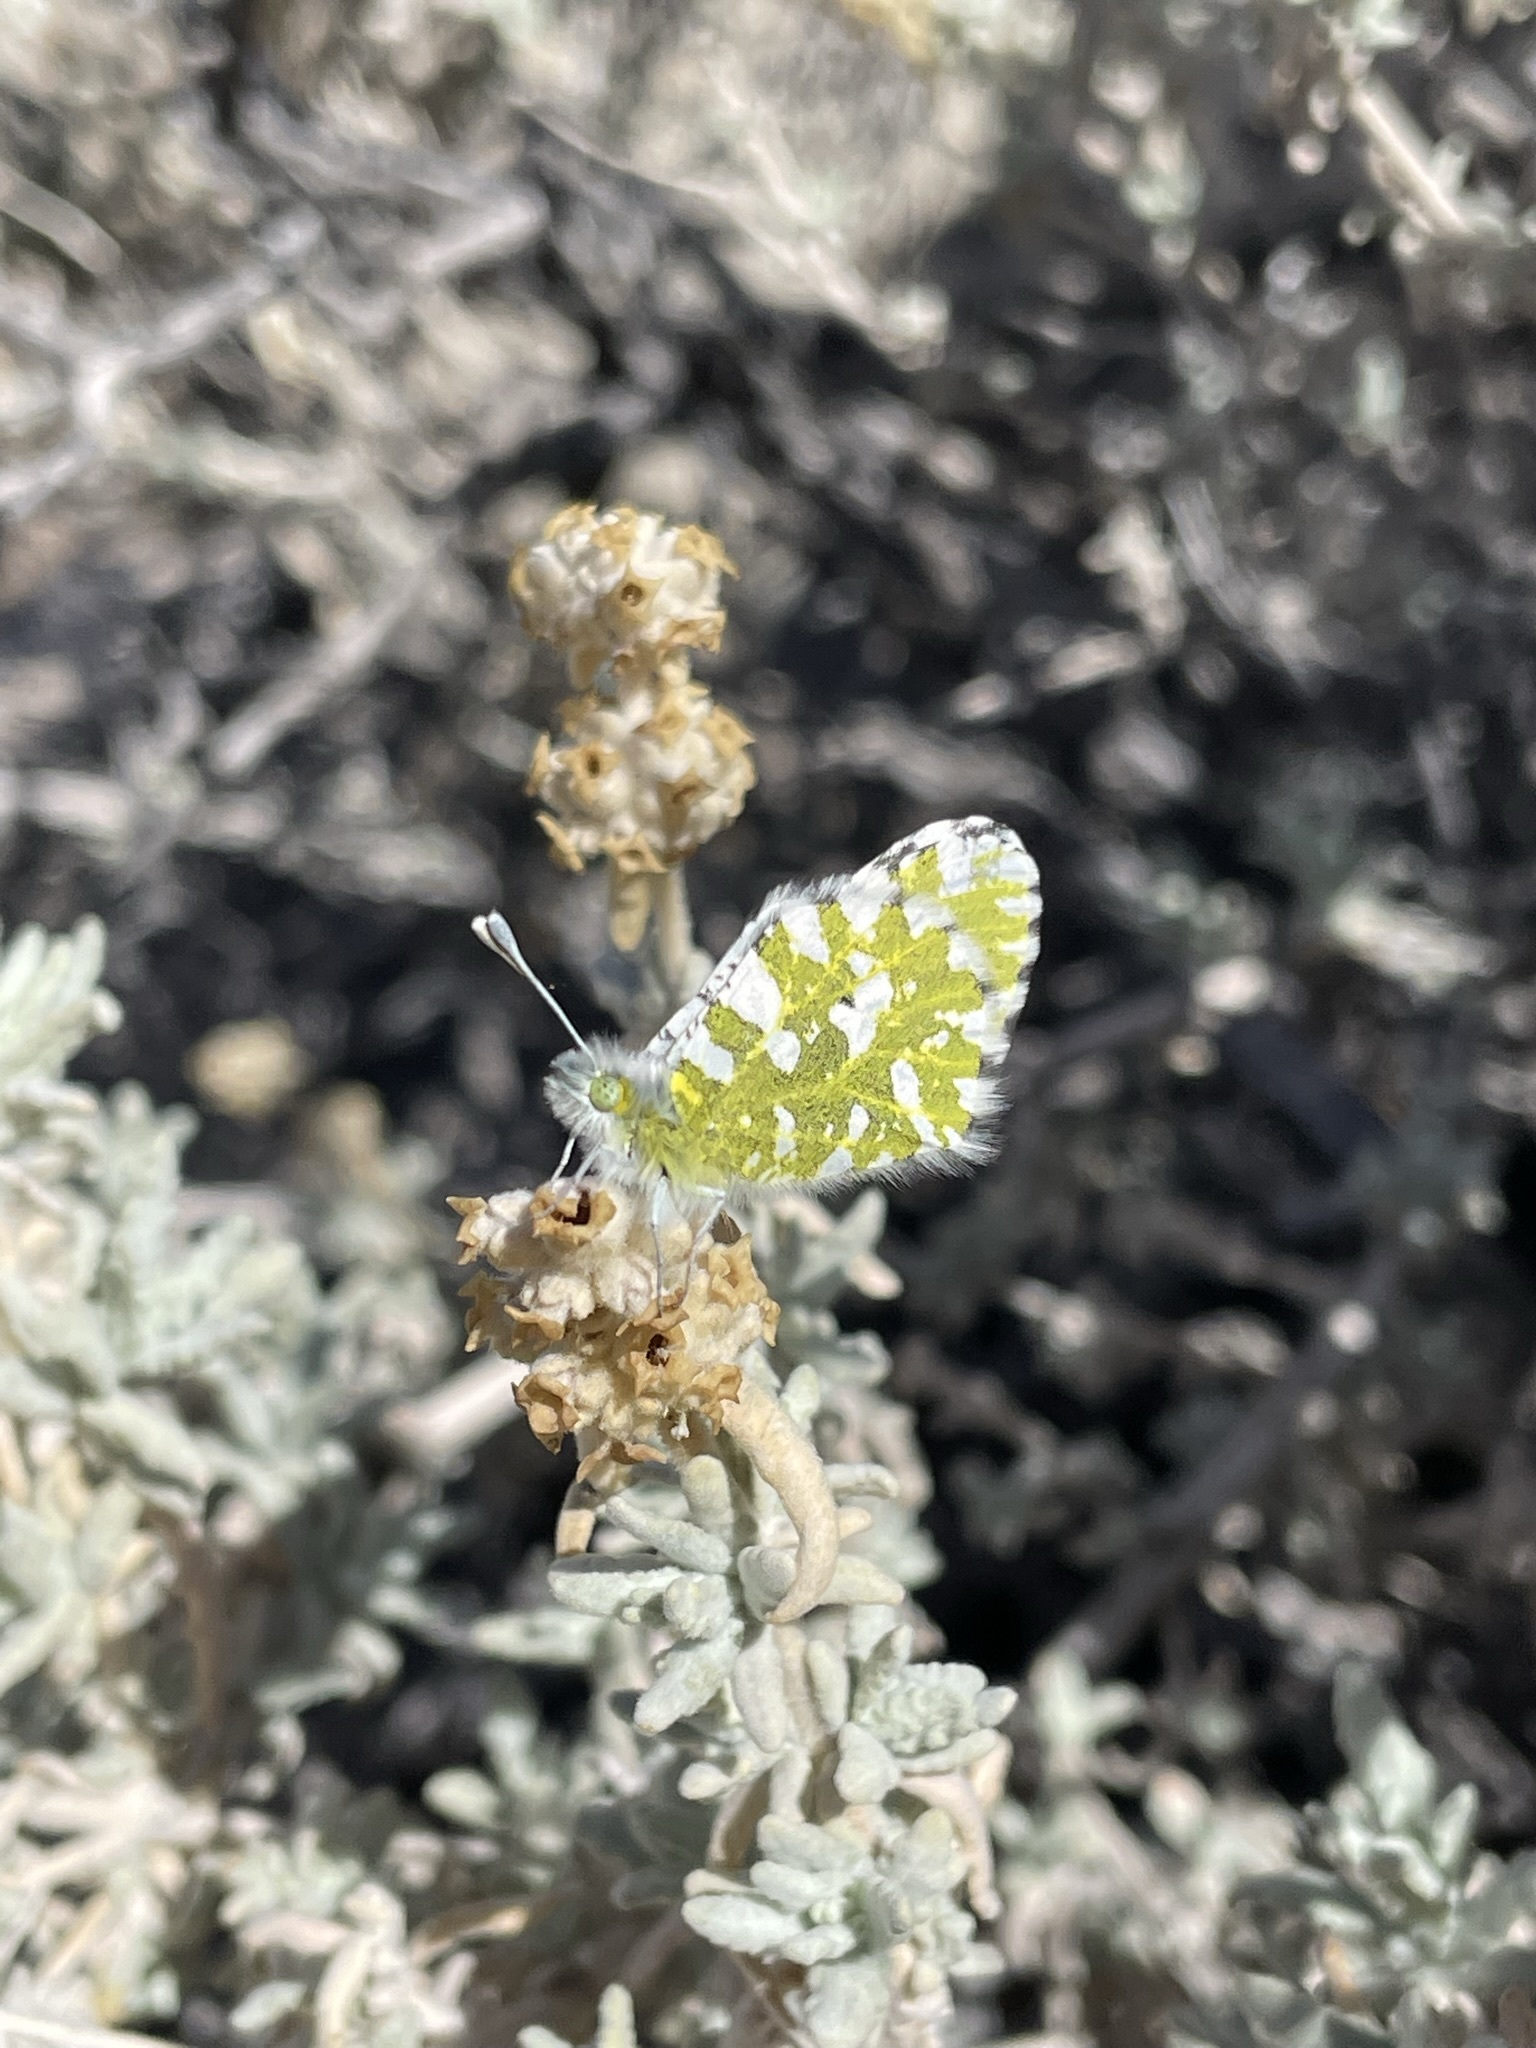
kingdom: Animalia
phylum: Arthropoda
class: Insecta
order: Lepidoptera
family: Pieridae
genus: Euchloe
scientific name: Euchloe lotta
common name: Desert marble
